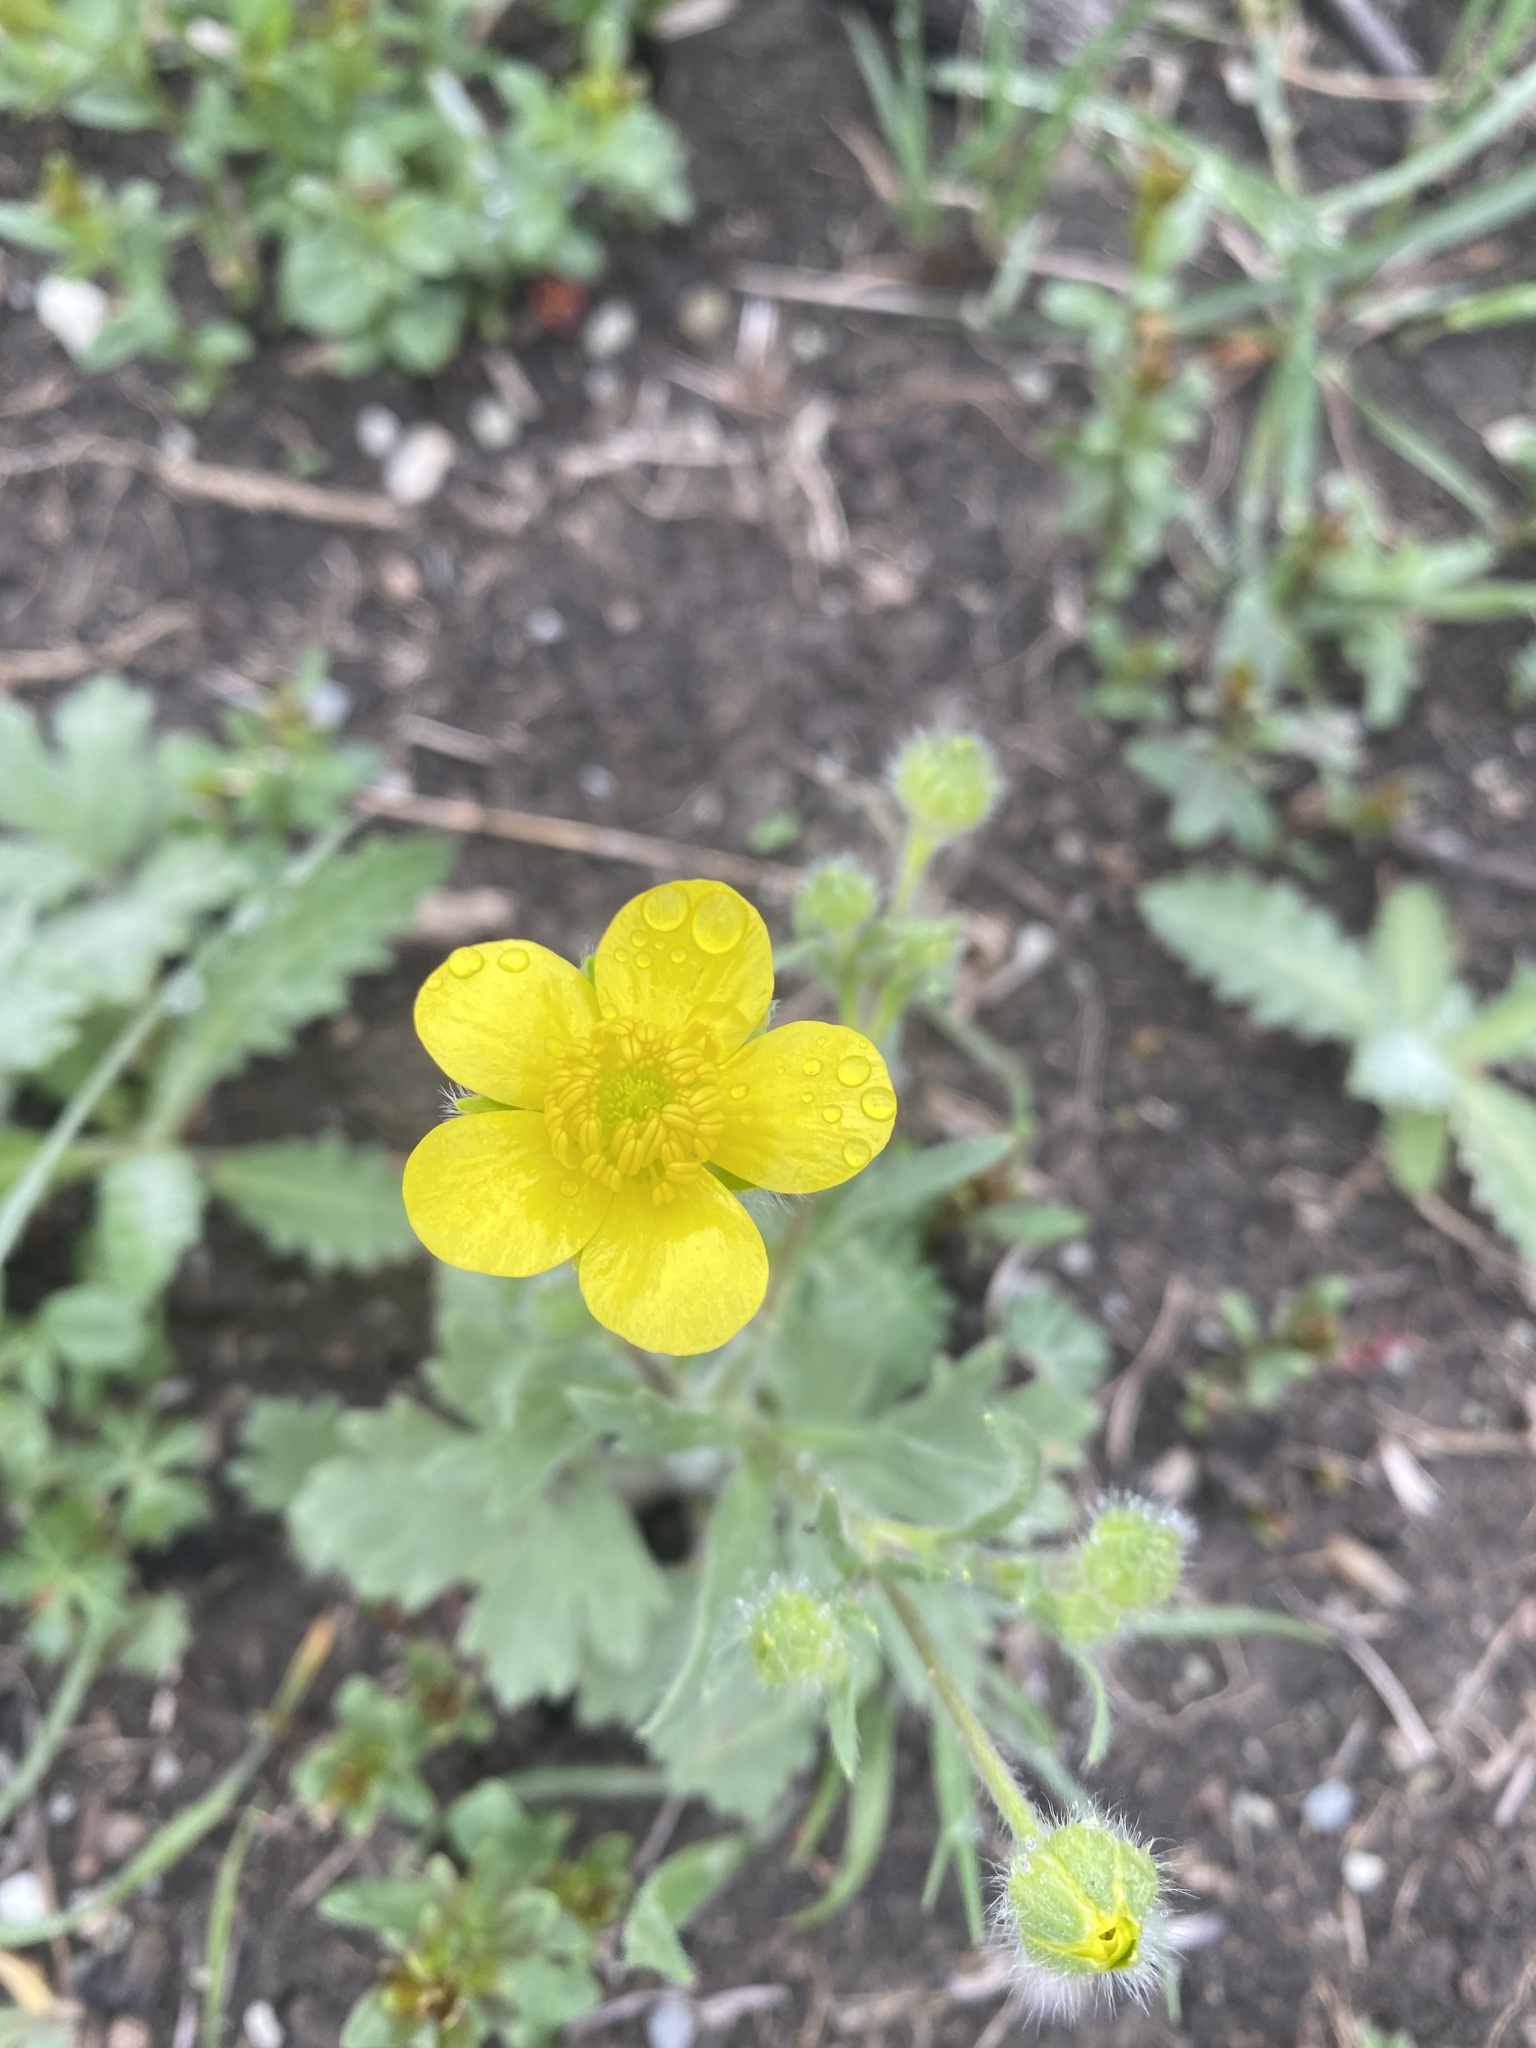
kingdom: Plantae
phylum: Tracheophyta
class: Magnoliopsida
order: Ranunculales
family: Ranunculaceae
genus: Ranunculus
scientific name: Ranunculus oxyspermus
